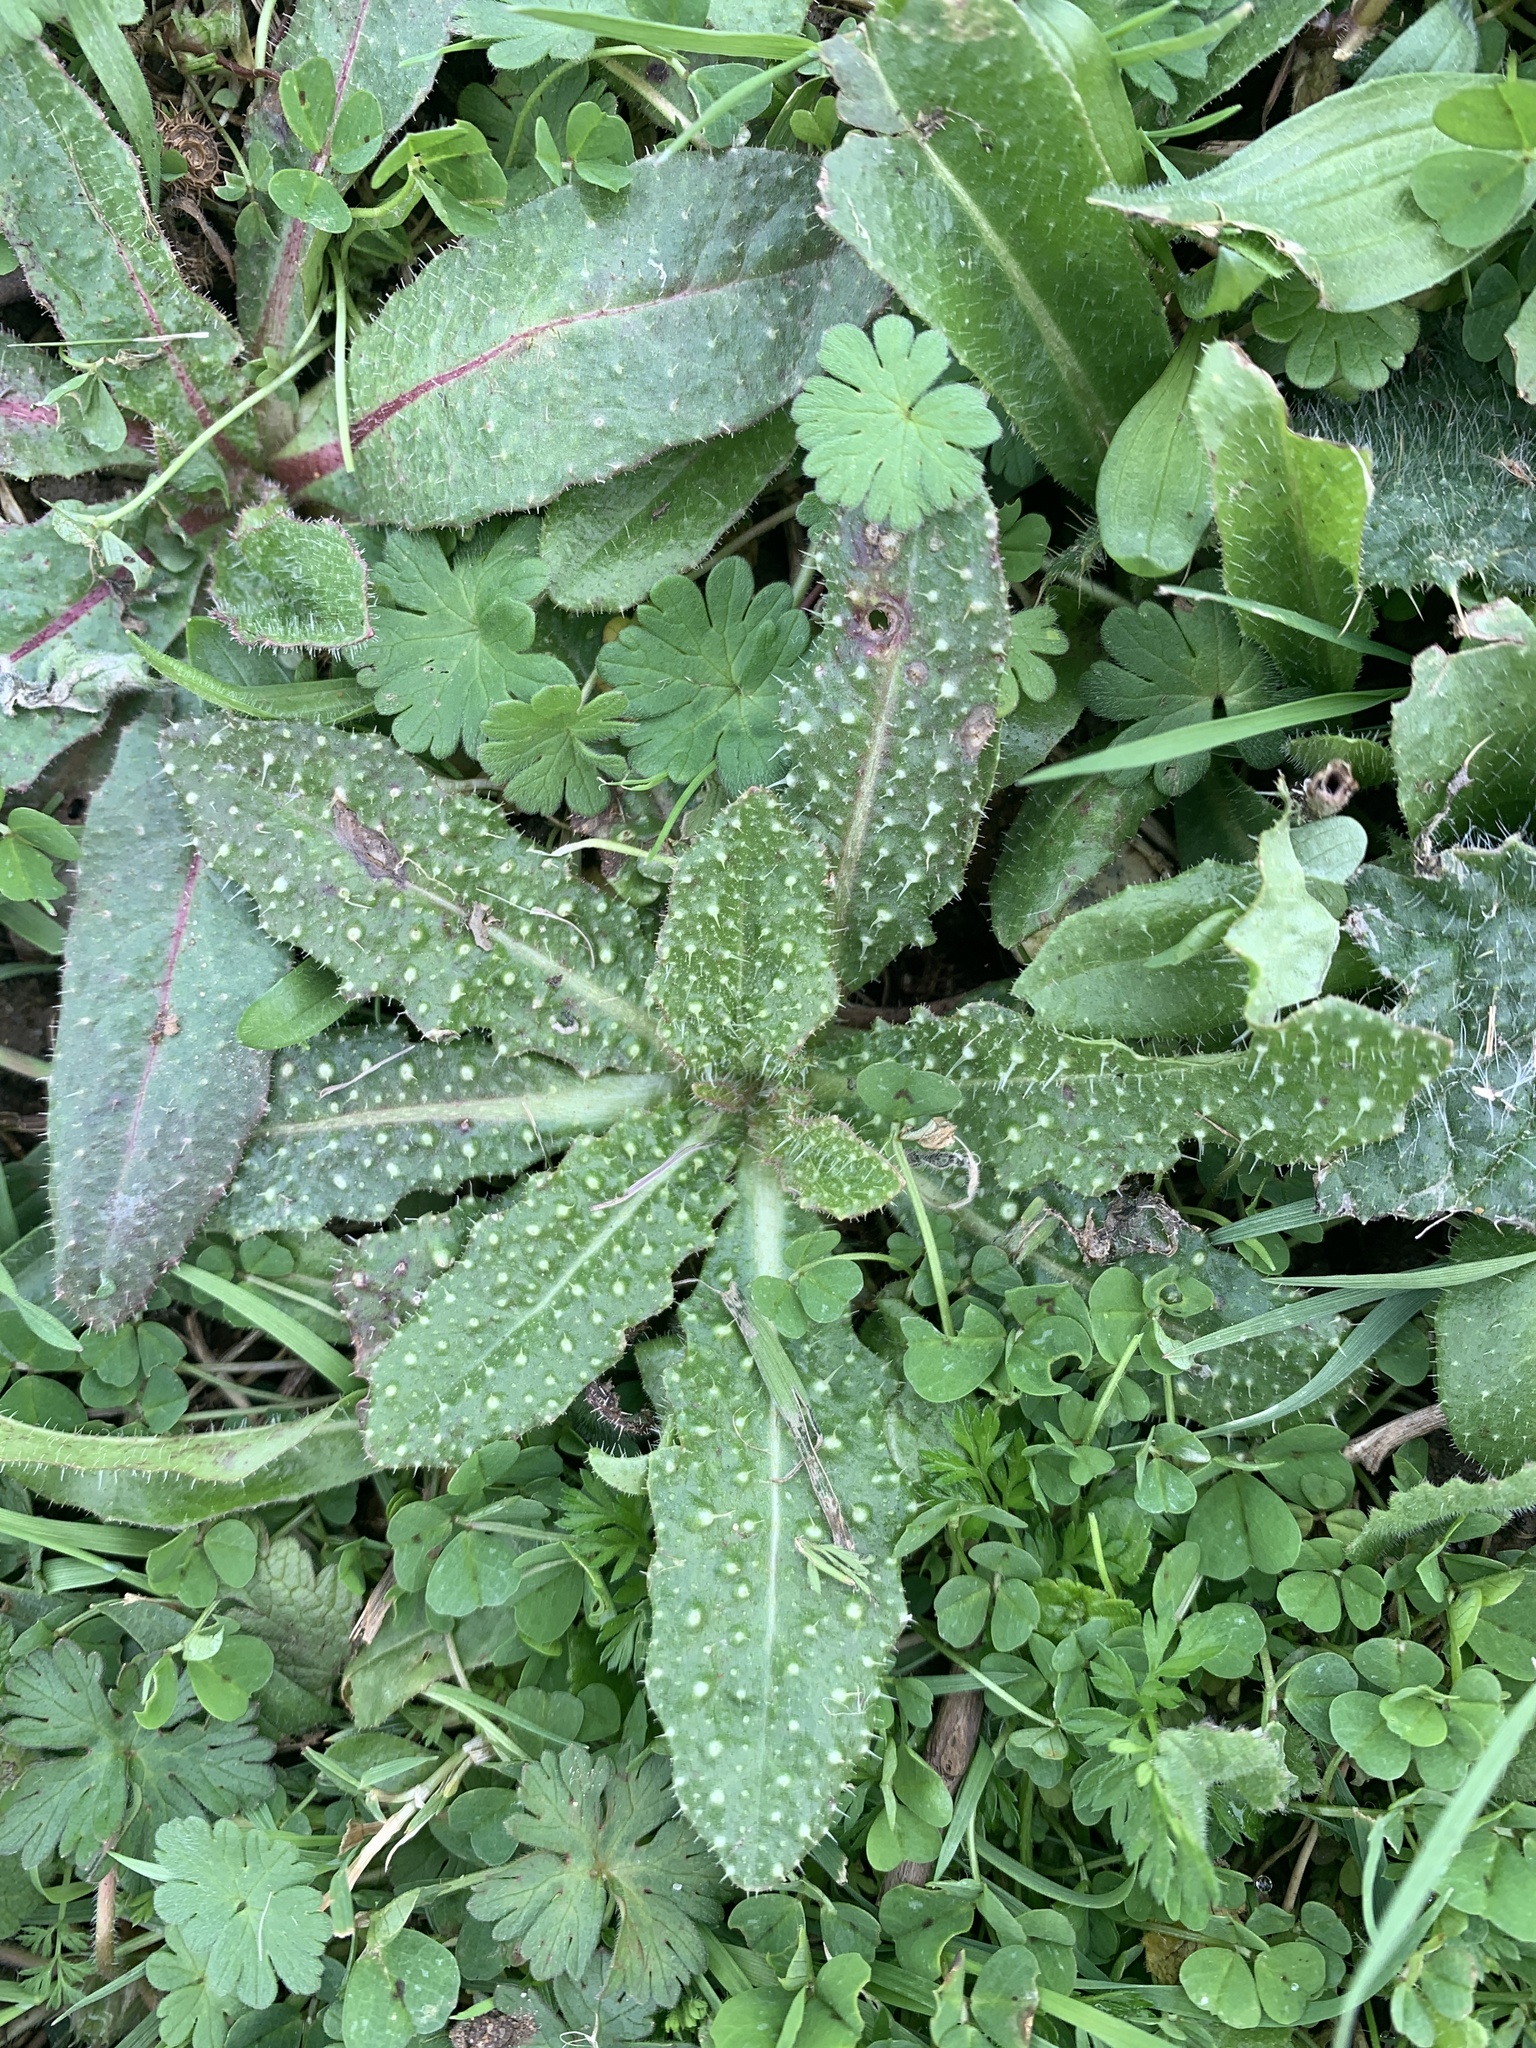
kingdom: Plantae
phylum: Tracheophyta
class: Magnoliopsida
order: Asterales
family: Asteraceae
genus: Helminthotheca
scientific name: Helminthotheca echioides
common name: Ox-tongue
